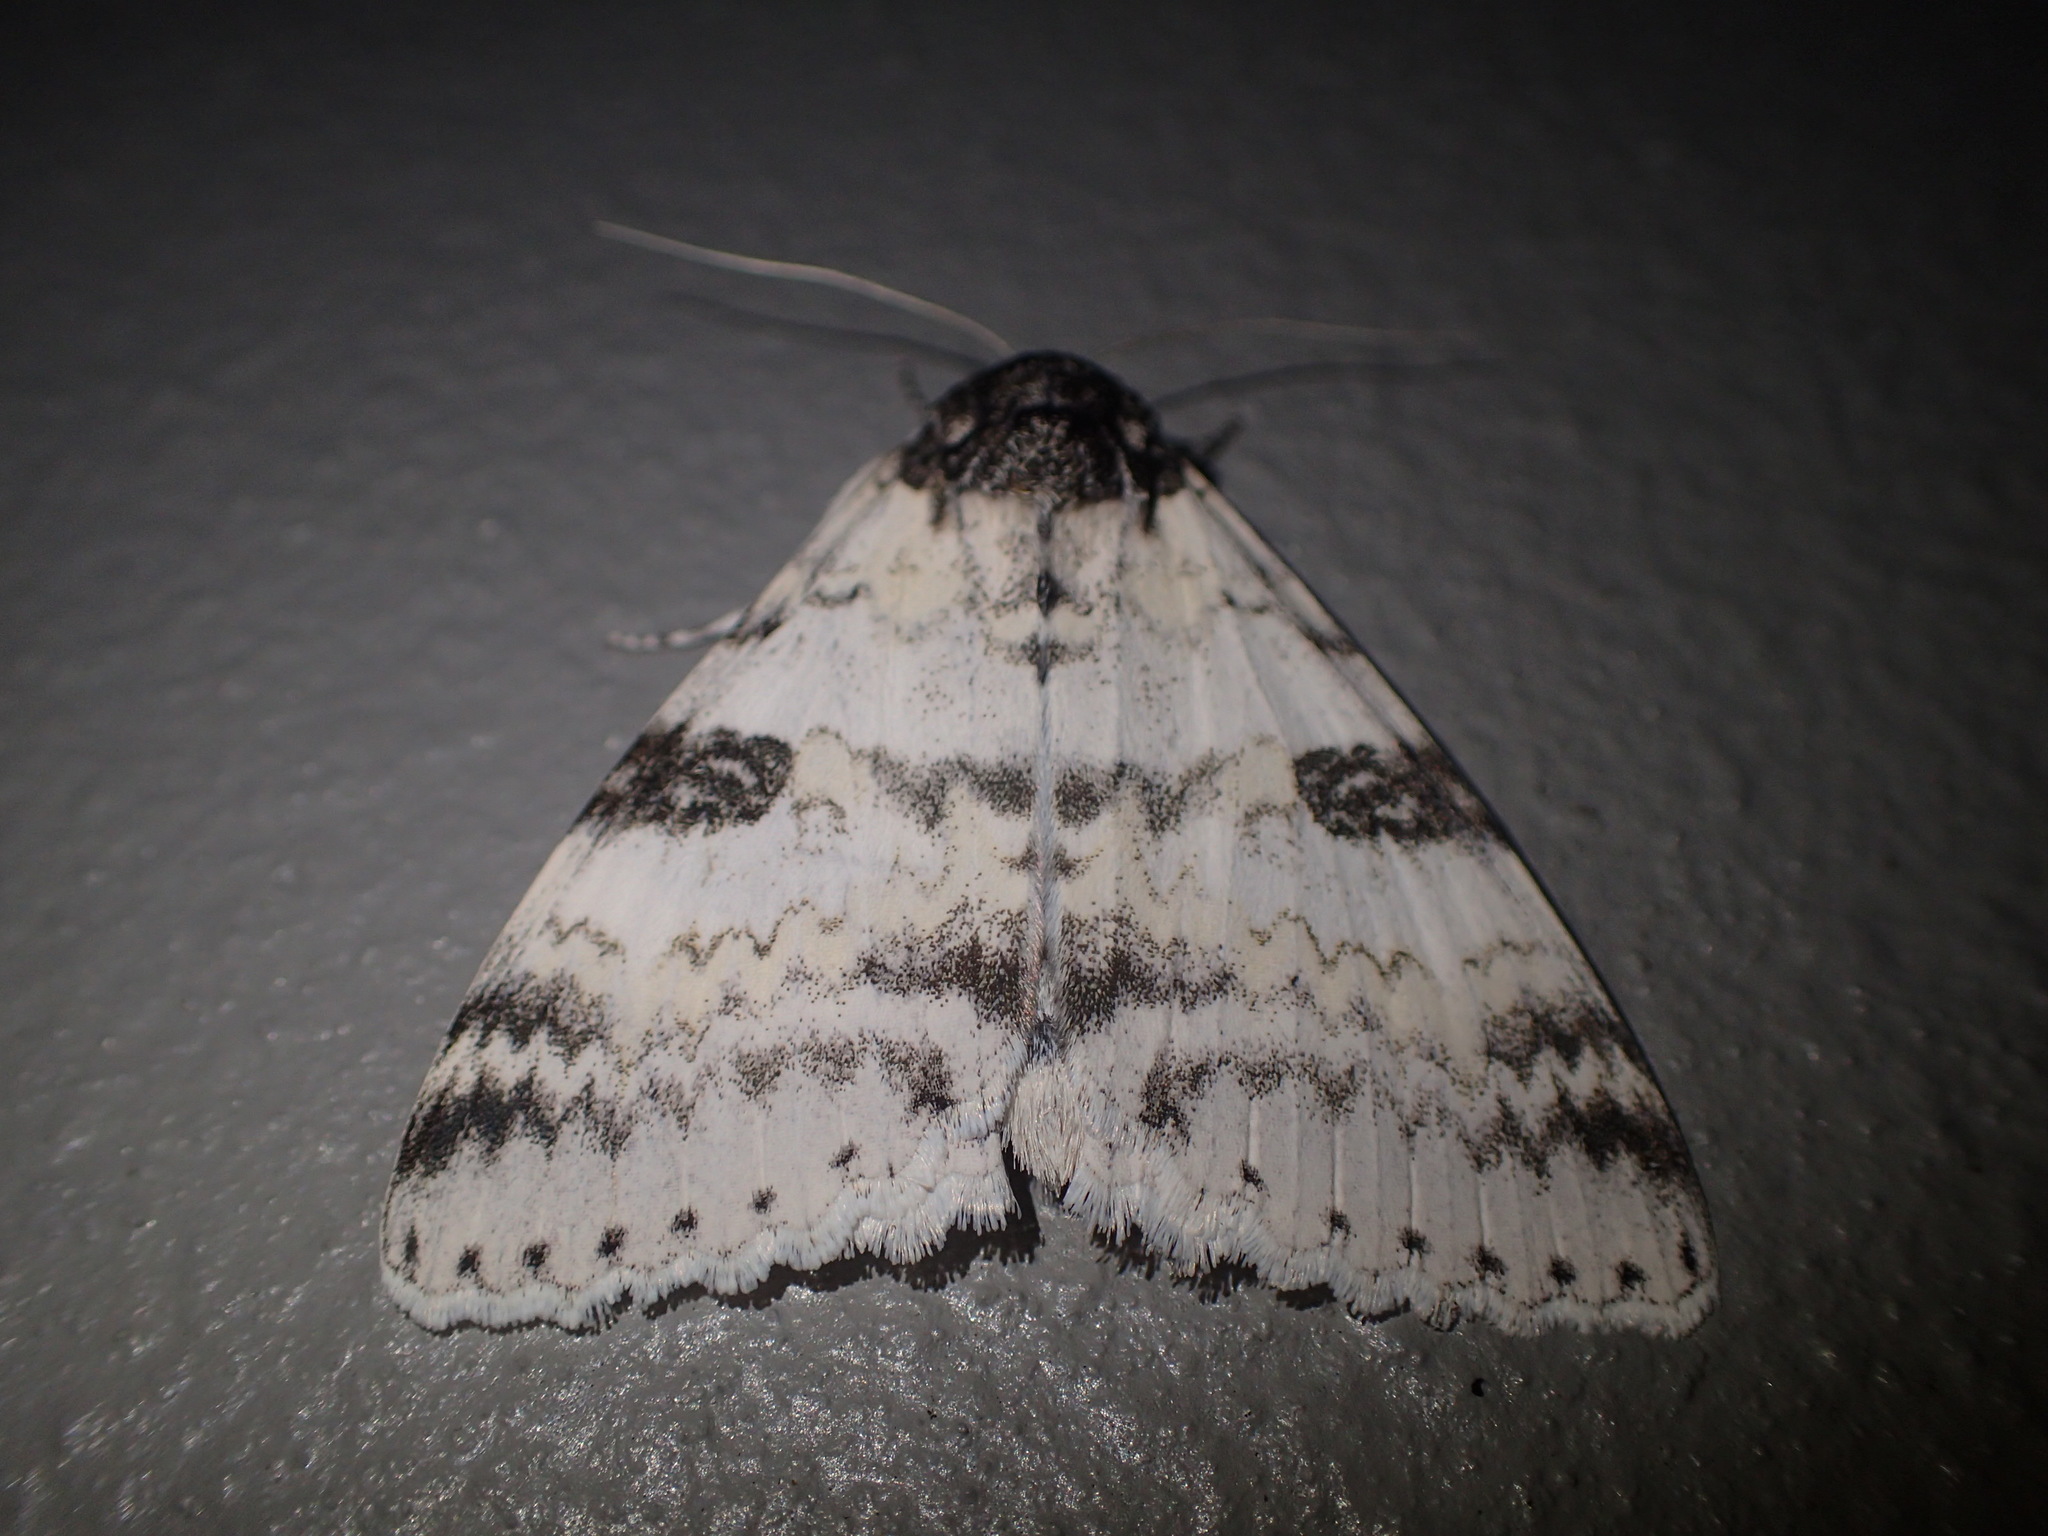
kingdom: Animalia
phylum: Arthropoda
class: Insecta
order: Lepidoptera
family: Erebidae
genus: Catocala
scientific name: Catocala relicta
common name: White underwing
